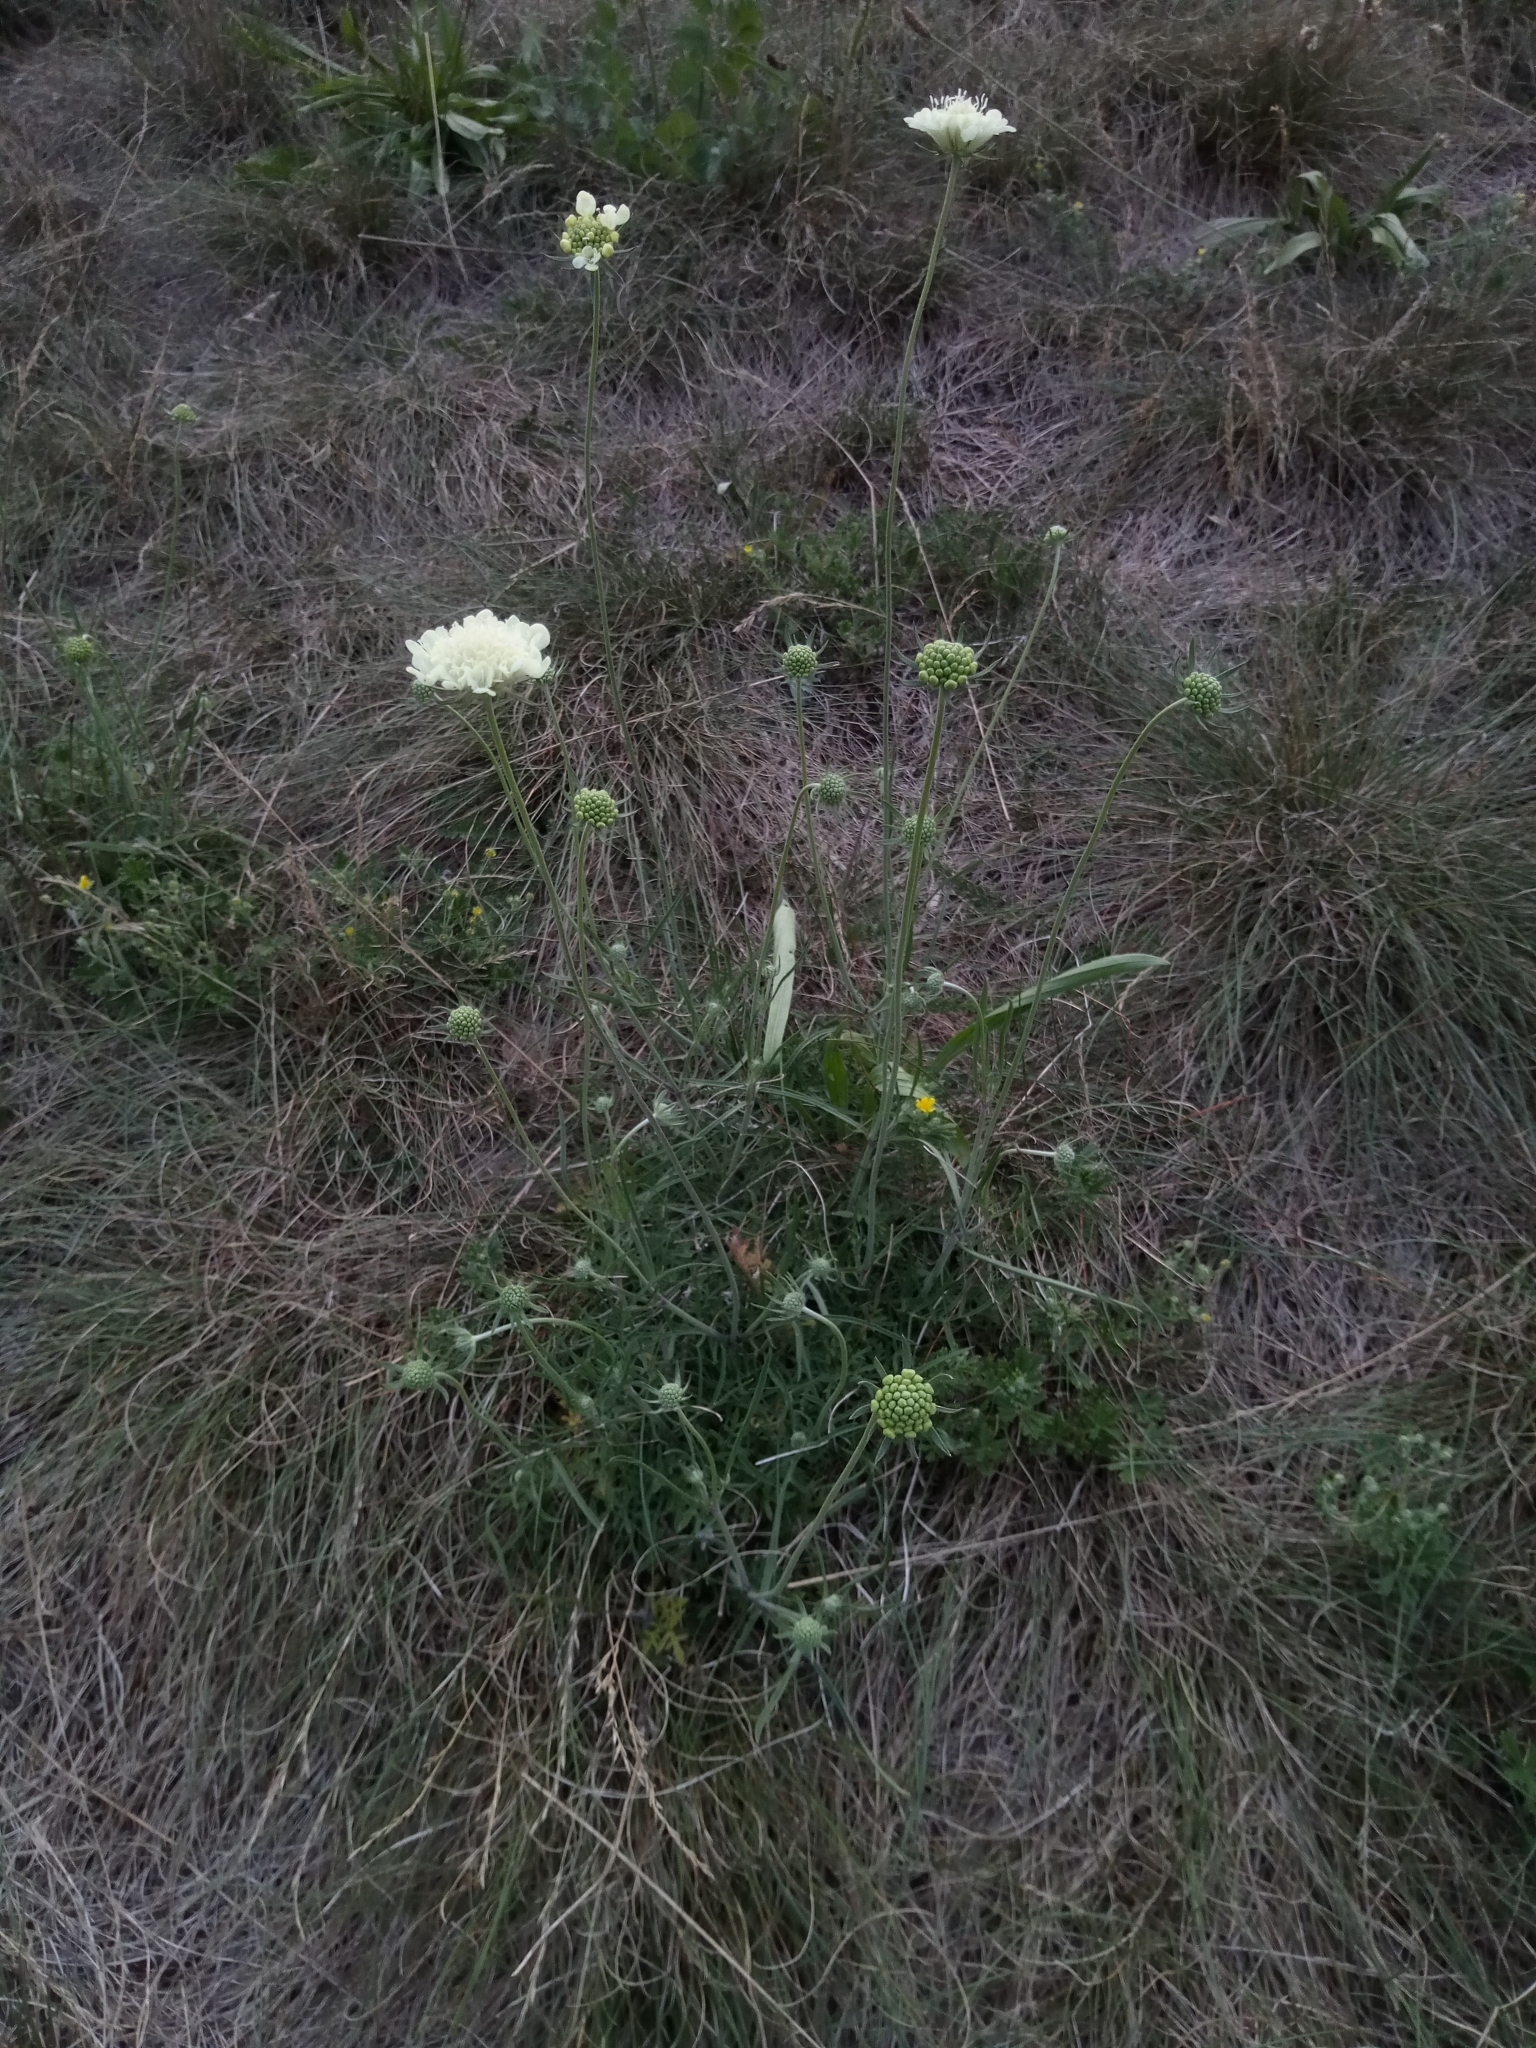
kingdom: Plantae
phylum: Tracheophyta
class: Magnoliopsida
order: Dipsacales
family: Caprifoliaceae
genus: Scabiosa
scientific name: Scabiosa ochroleuca
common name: Cream pincushions
